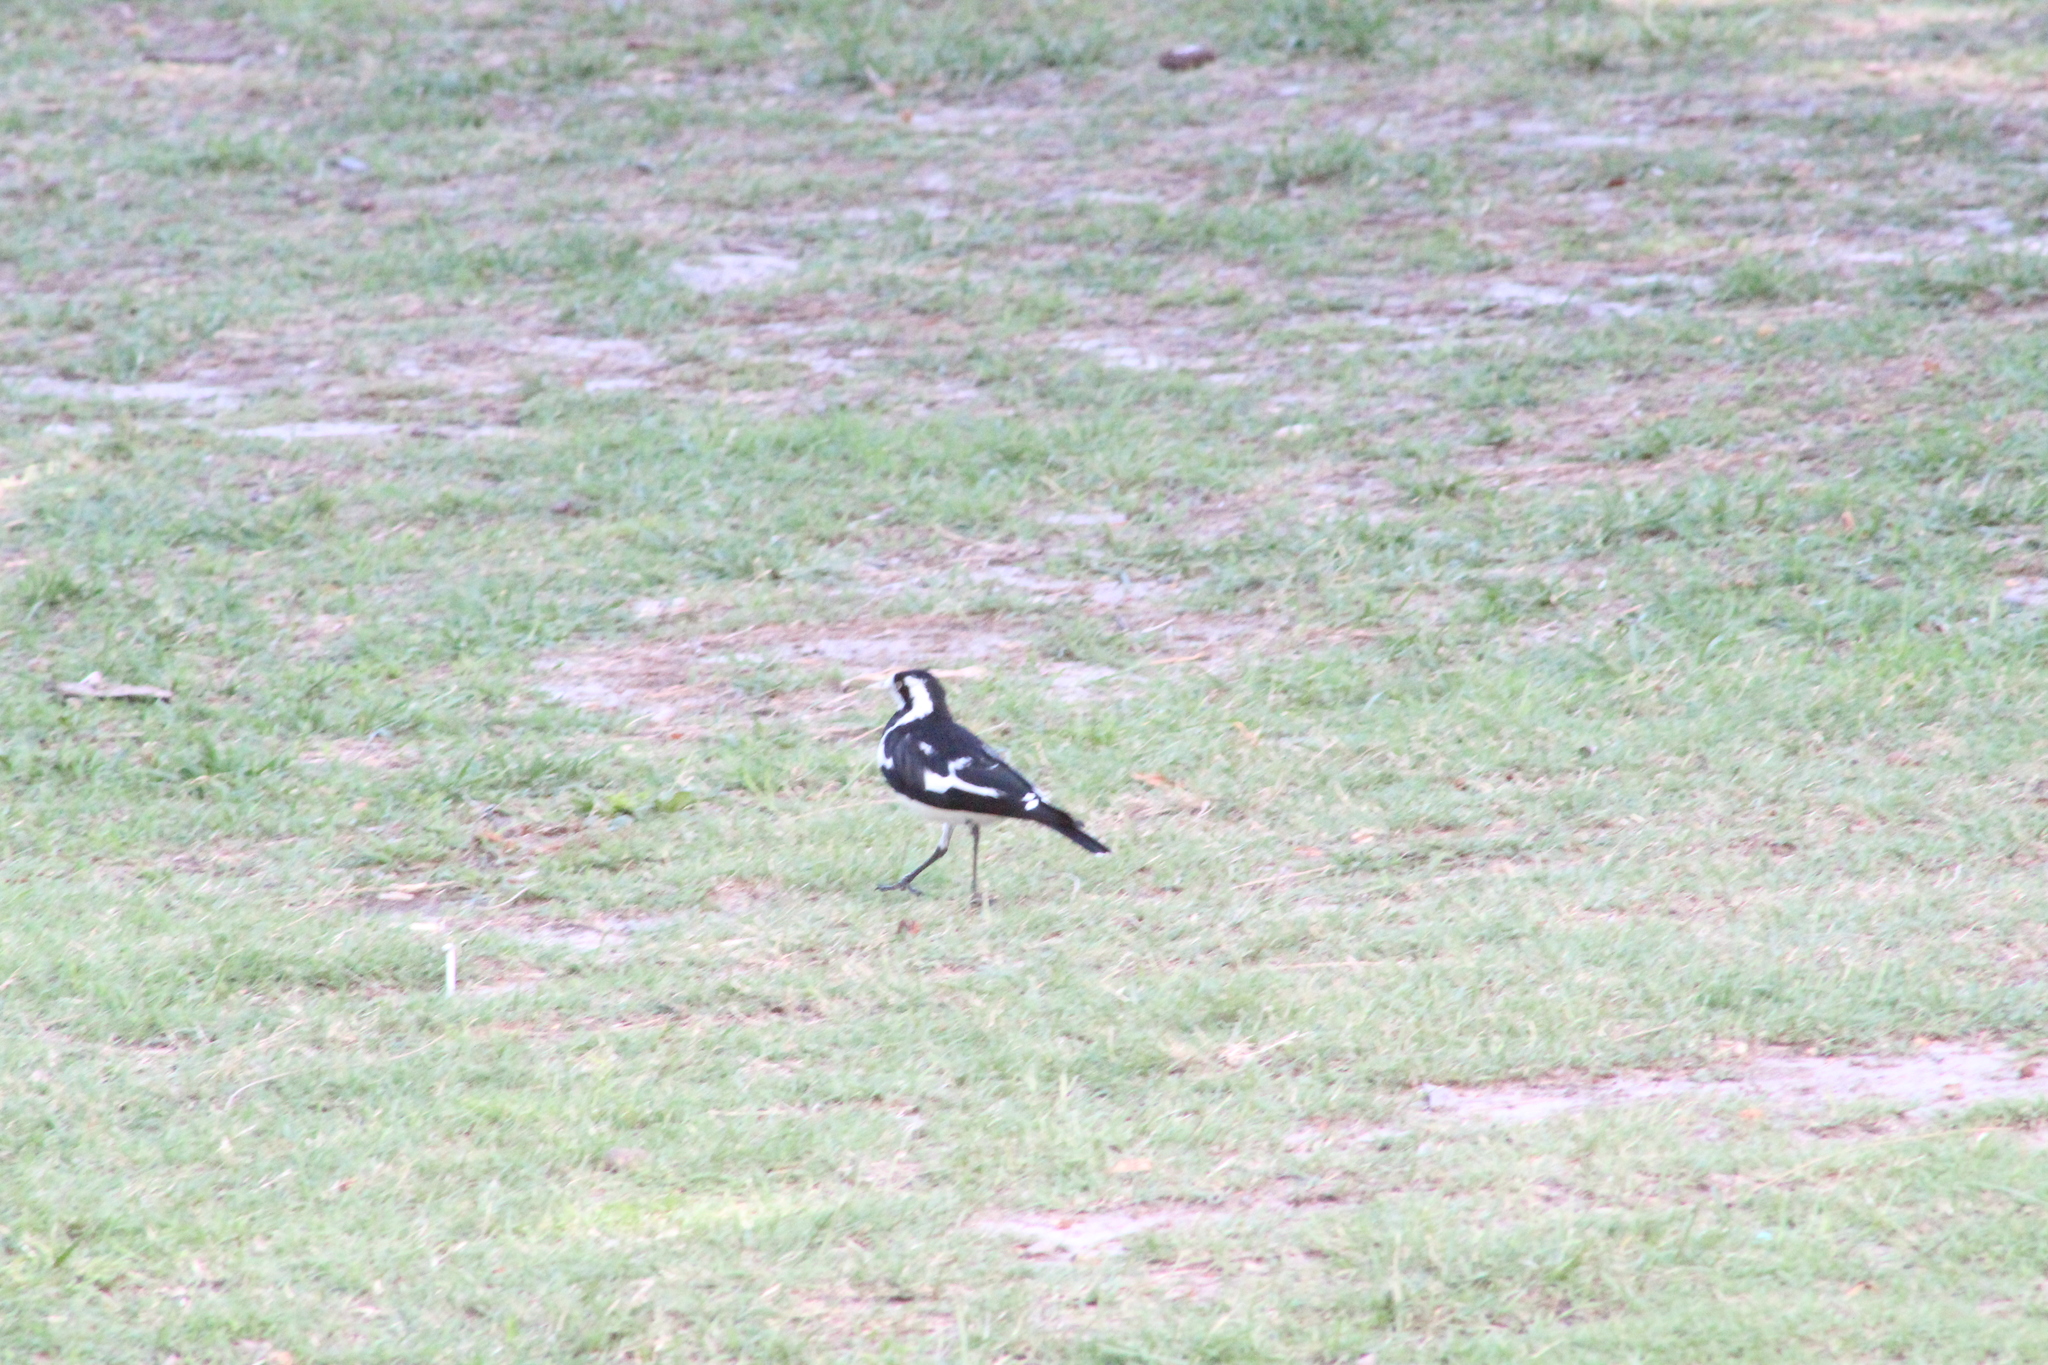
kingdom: Animalia
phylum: Chordata
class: Aves
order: Passeriformes
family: Monarchidae
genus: Grallina
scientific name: Grallina cyanoleuca
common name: Magpie-lark
